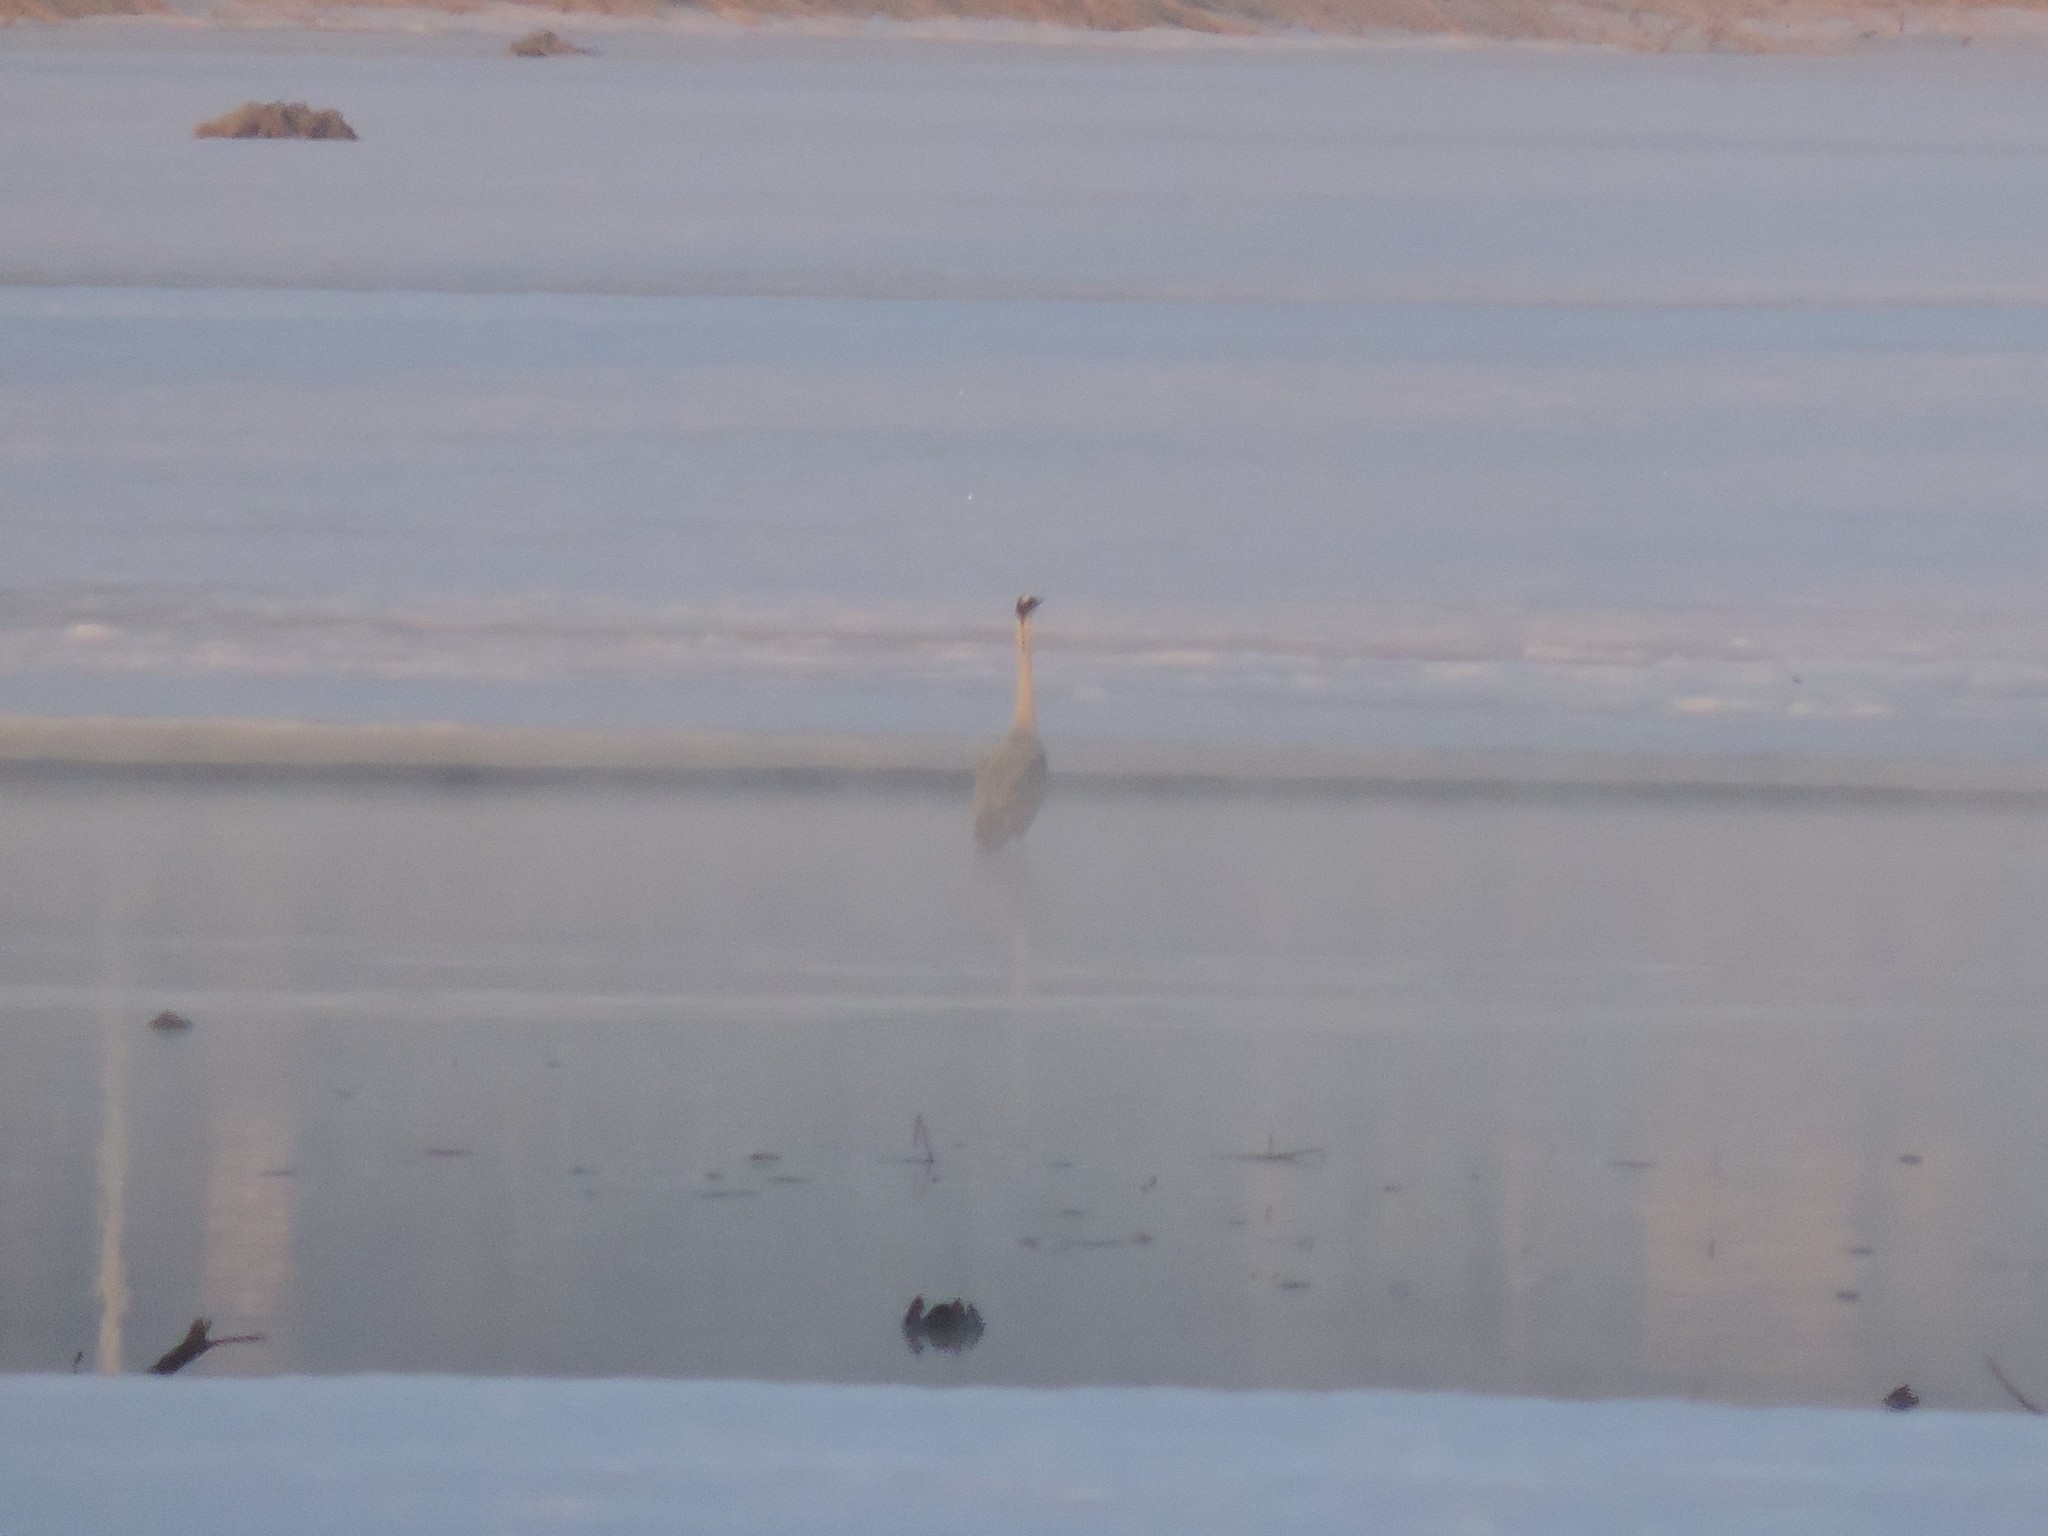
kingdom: Animalia
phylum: Chordata
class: Aves
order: Pelecaniformes
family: Ardeidae
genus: Ardea
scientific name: Ardea cinerea
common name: Grey heron
